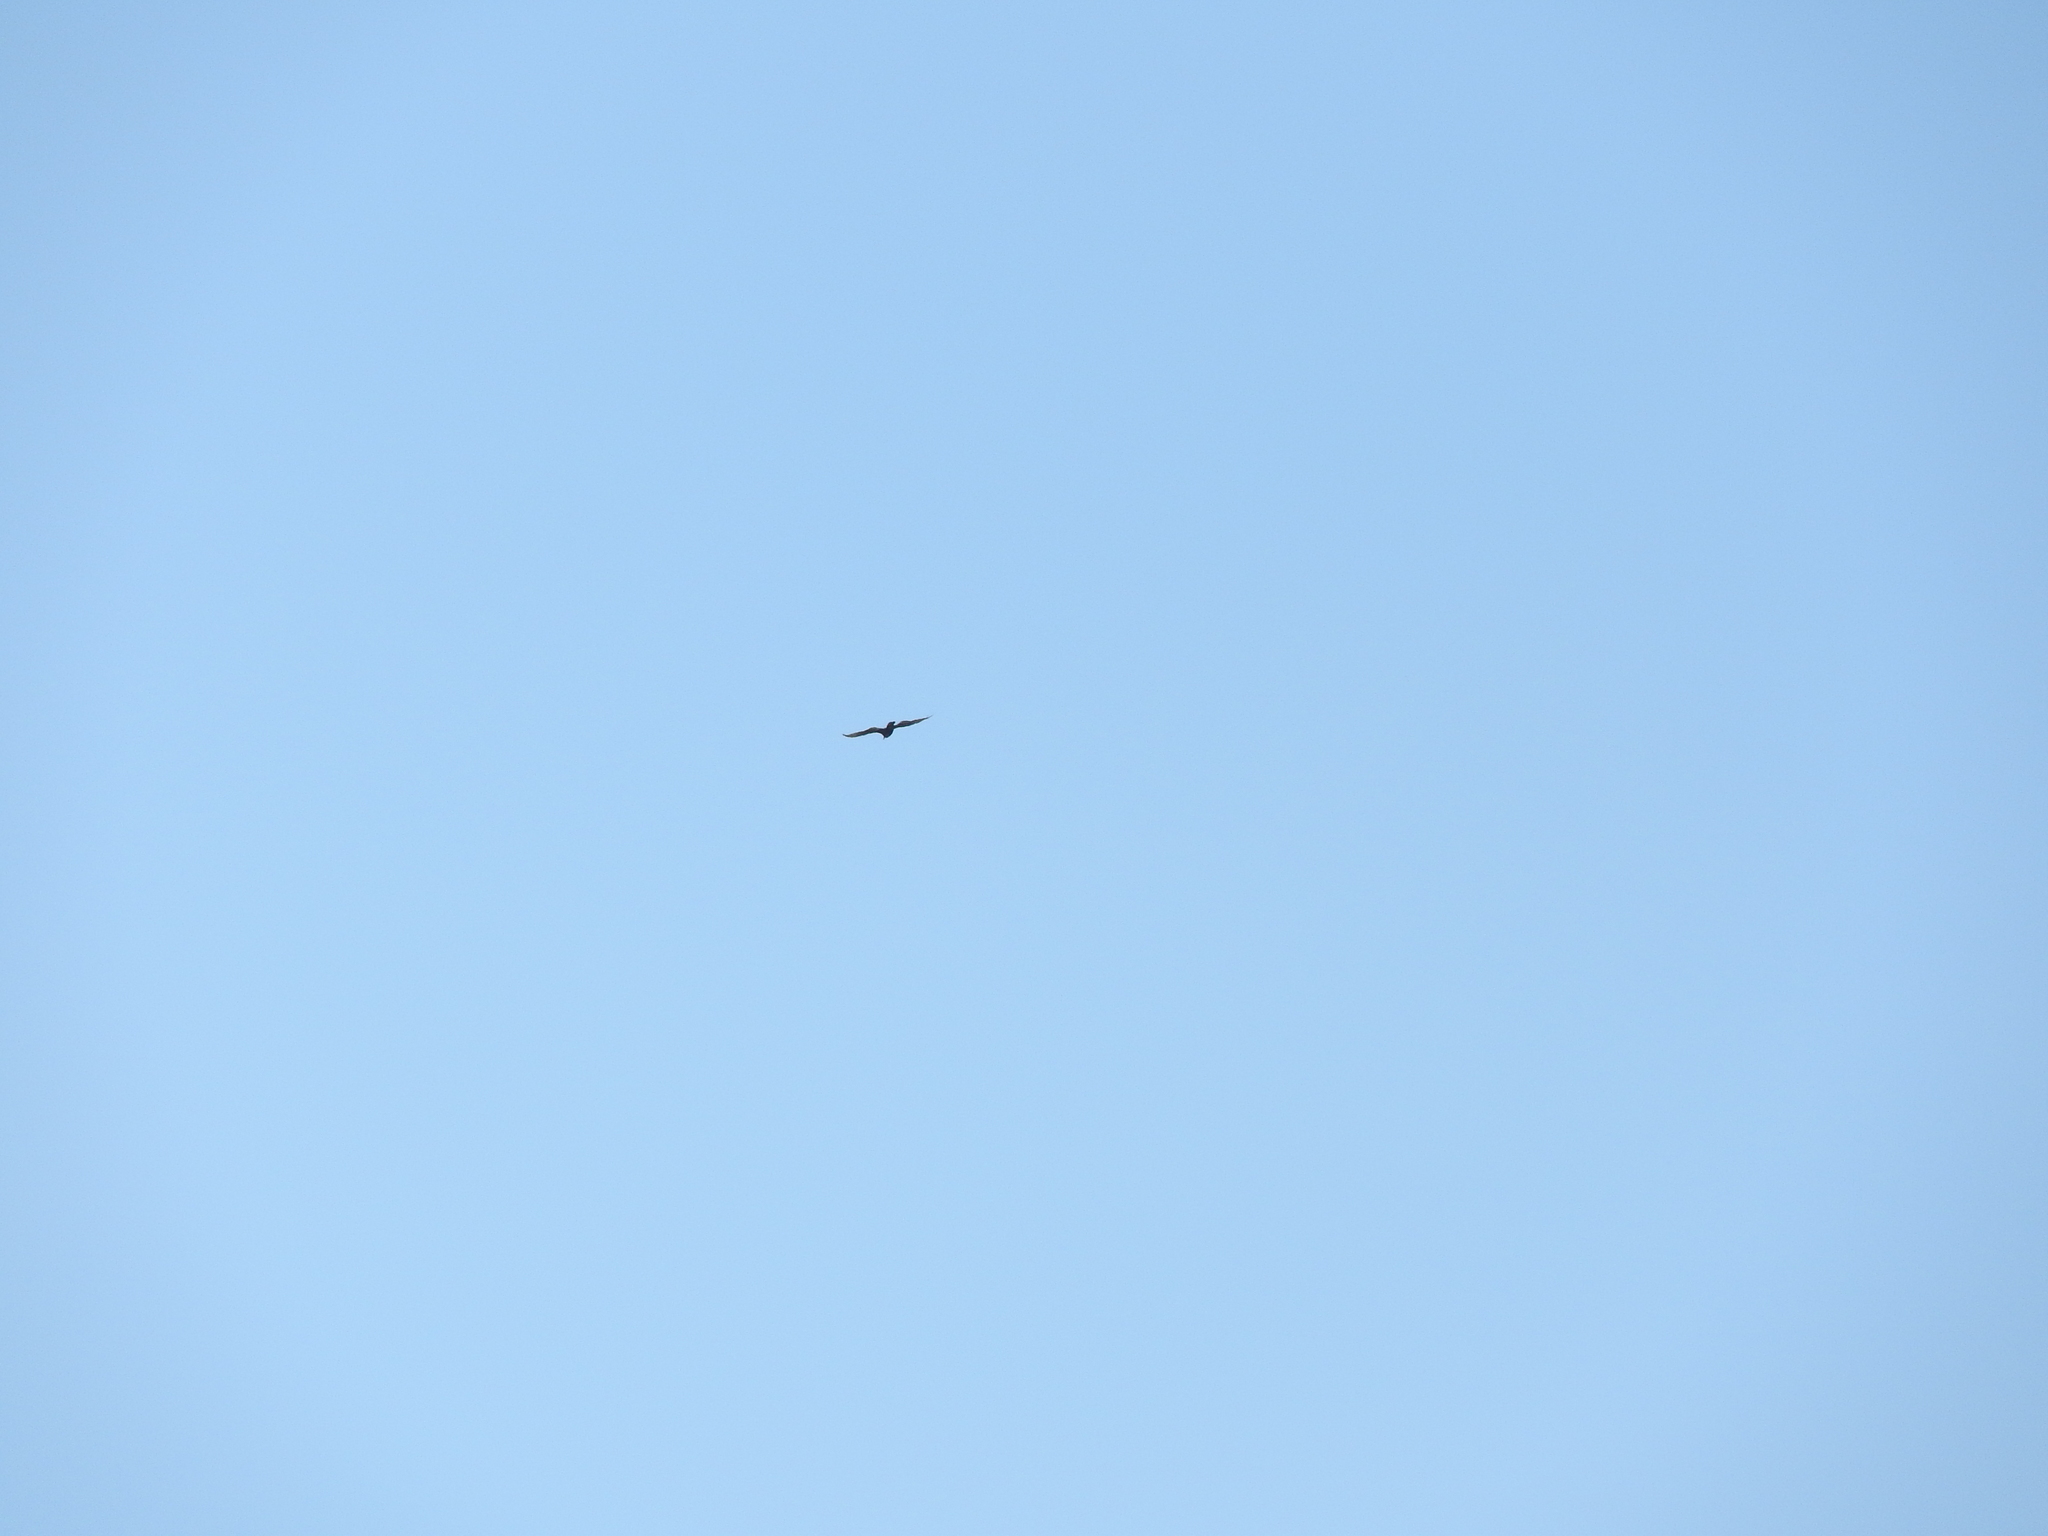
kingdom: Animalia
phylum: Chordata
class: Aves
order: Accipitriformes
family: Cathartidae
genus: Cathartes
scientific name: Cathartes aura
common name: Turkey vulture
